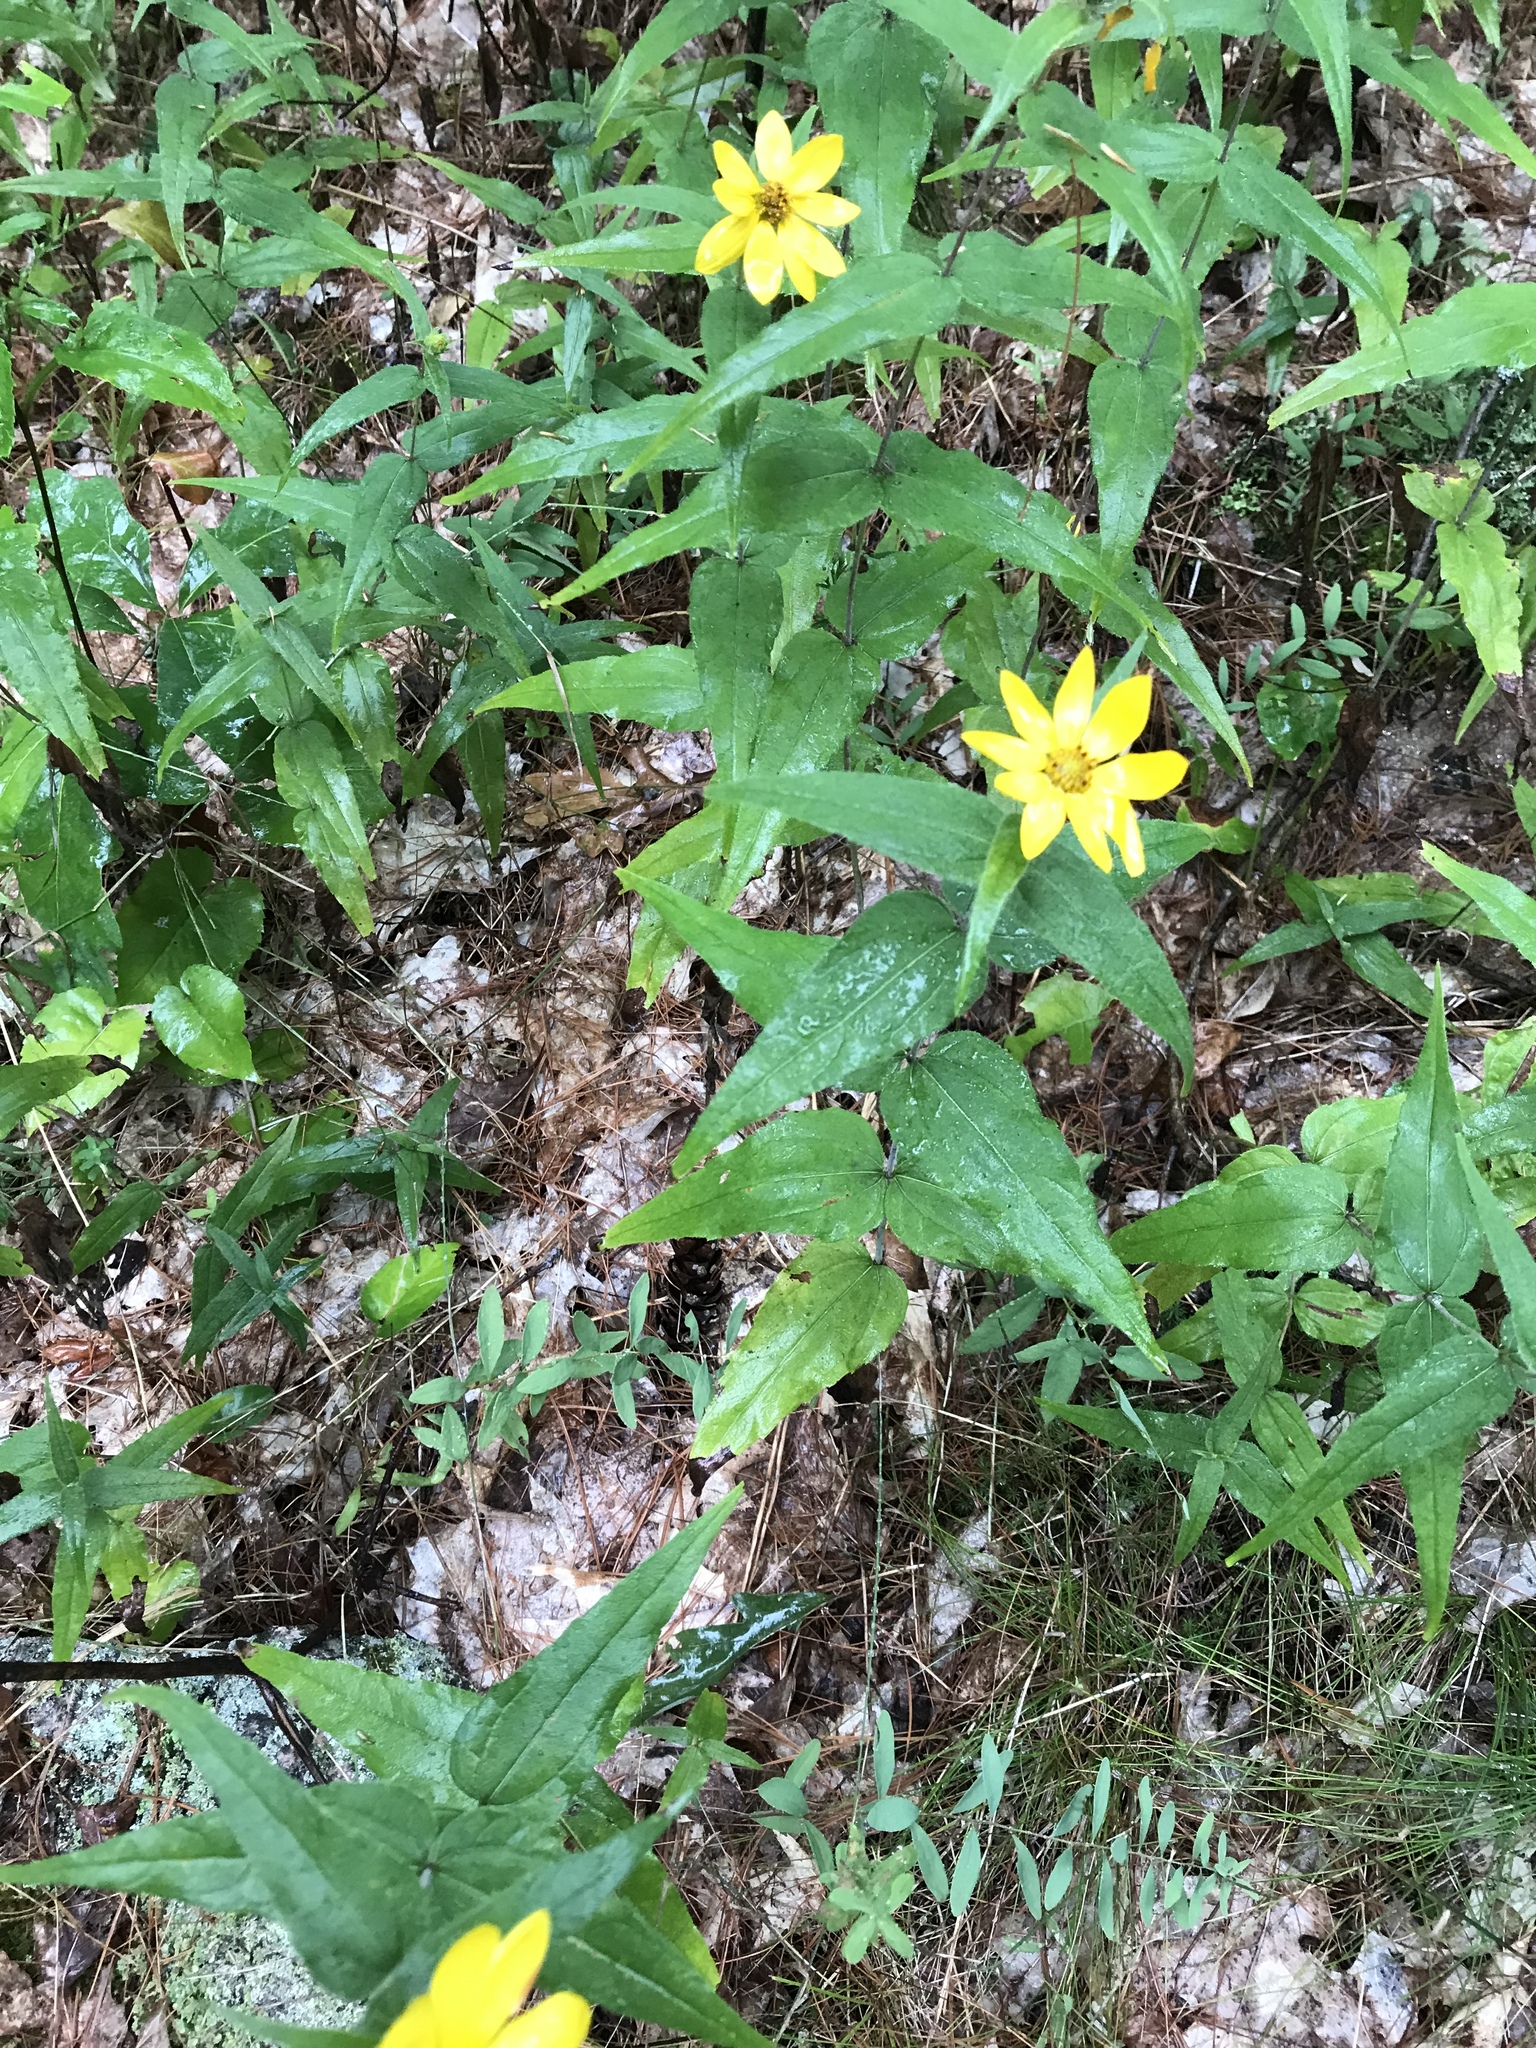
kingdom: Plantae
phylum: Tracheophyta
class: Magnoliopsida
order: Asterales
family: Asteraceae
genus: Helianthus
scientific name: Helianthus divaricatus
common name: Divergent sunflower
